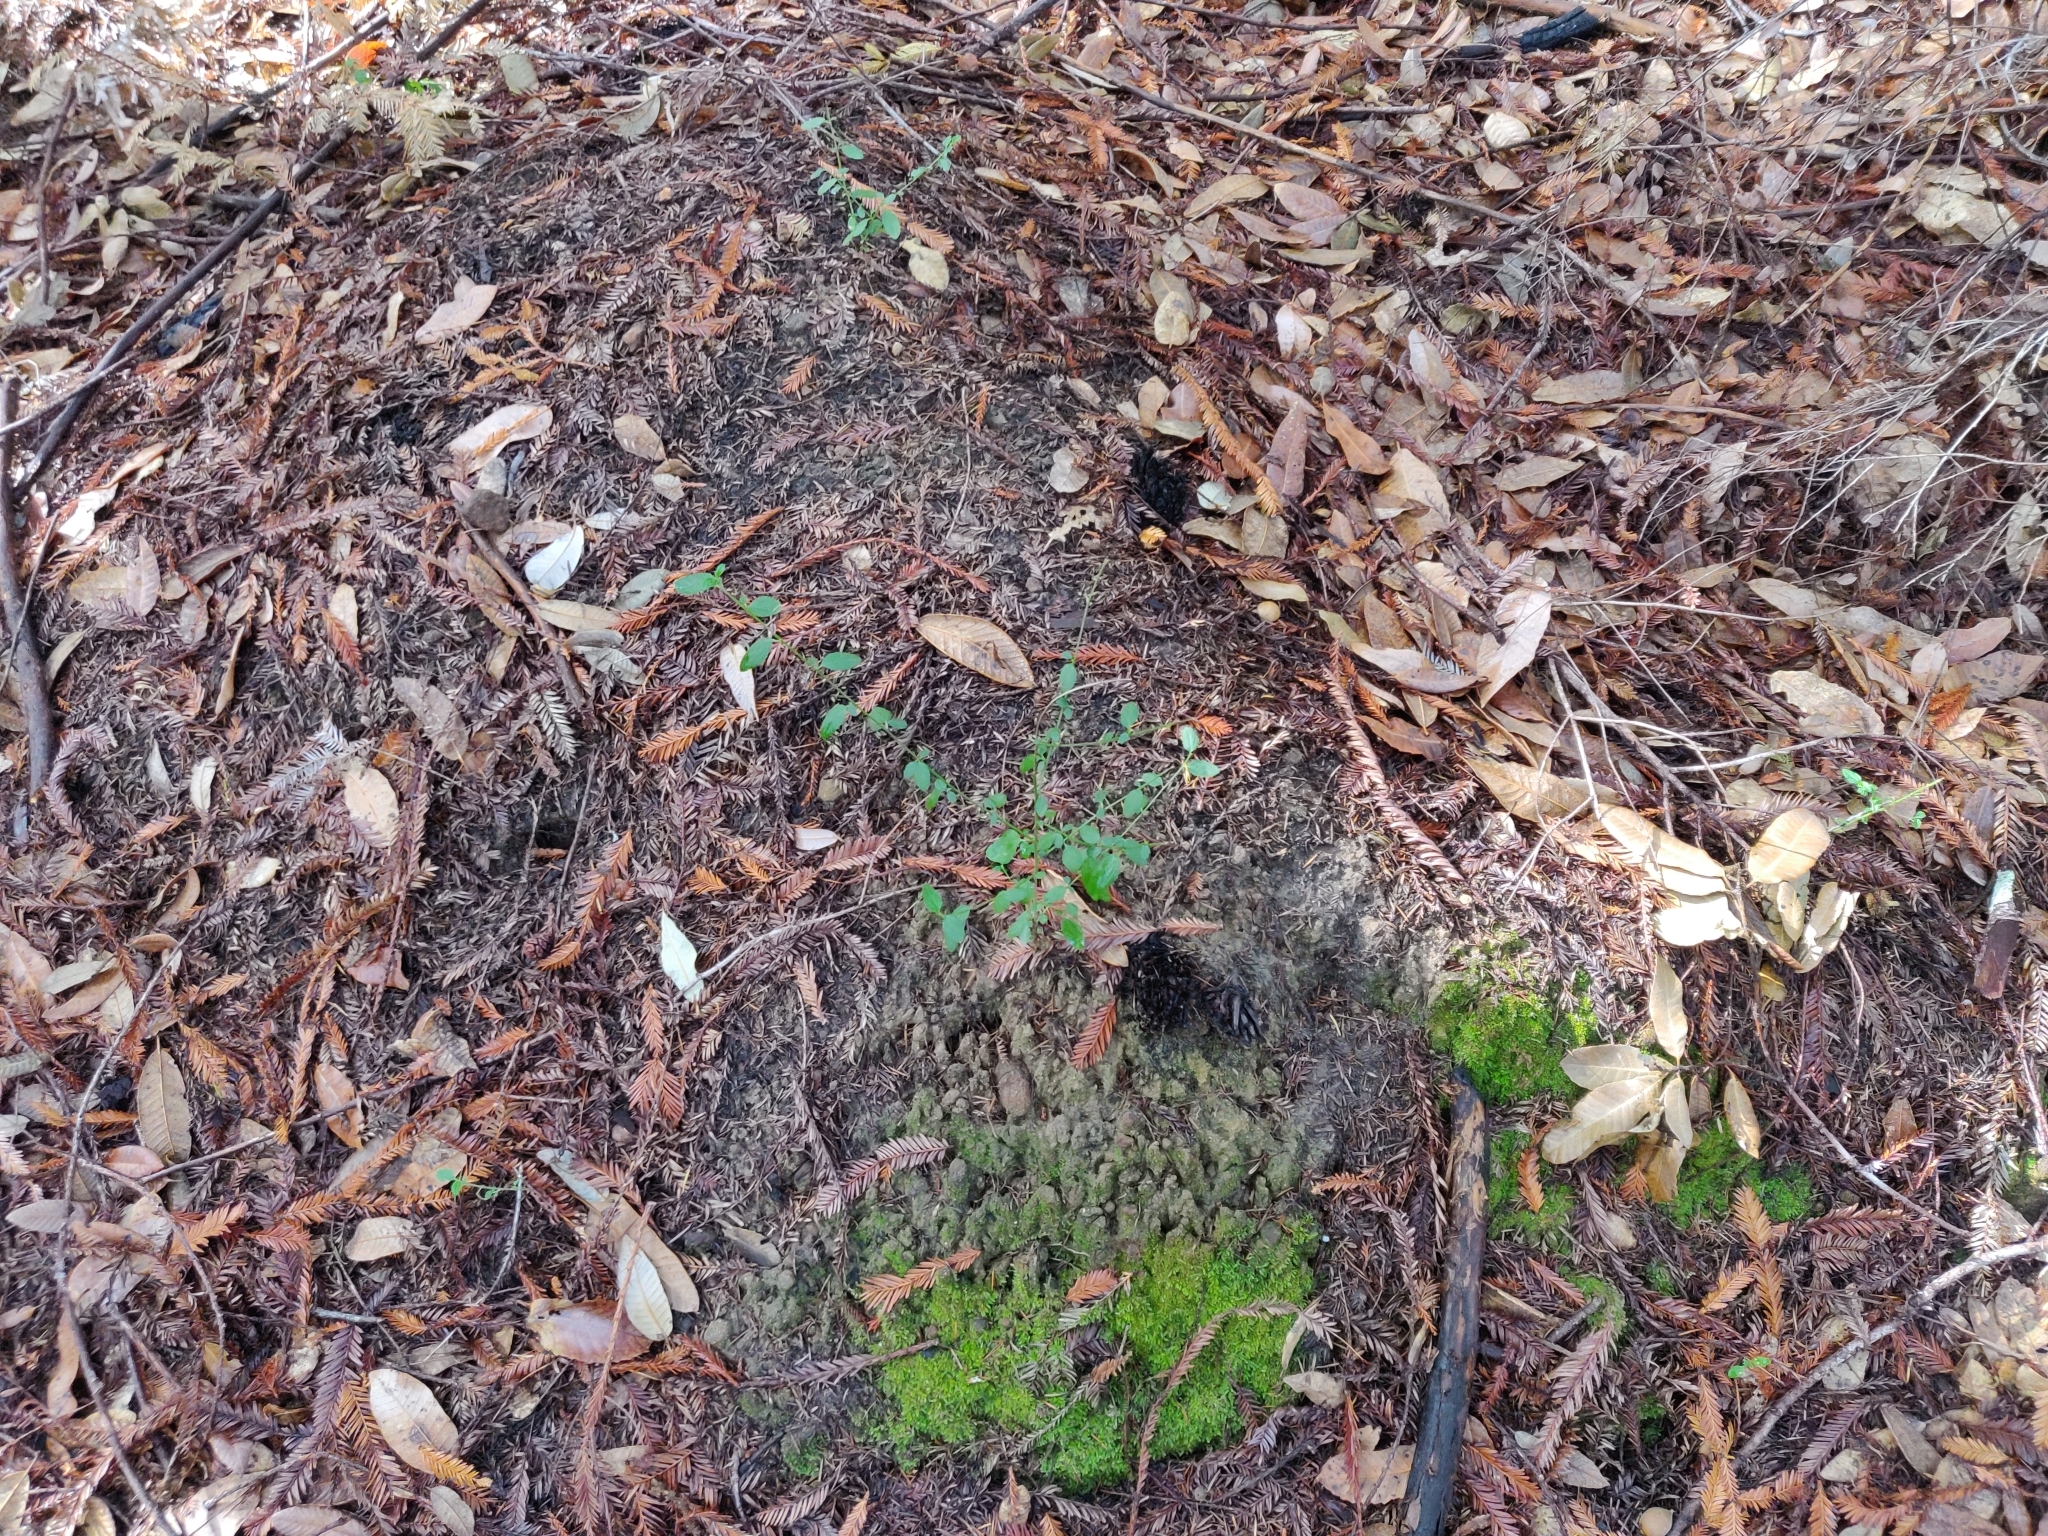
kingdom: Plantae
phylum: Tracheophyta
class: Magnoliopsida
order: Rosales
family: Rhamnaceae
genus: Ceanothus
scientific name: Ceanothus thyrsiflorus
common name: California-lilac
